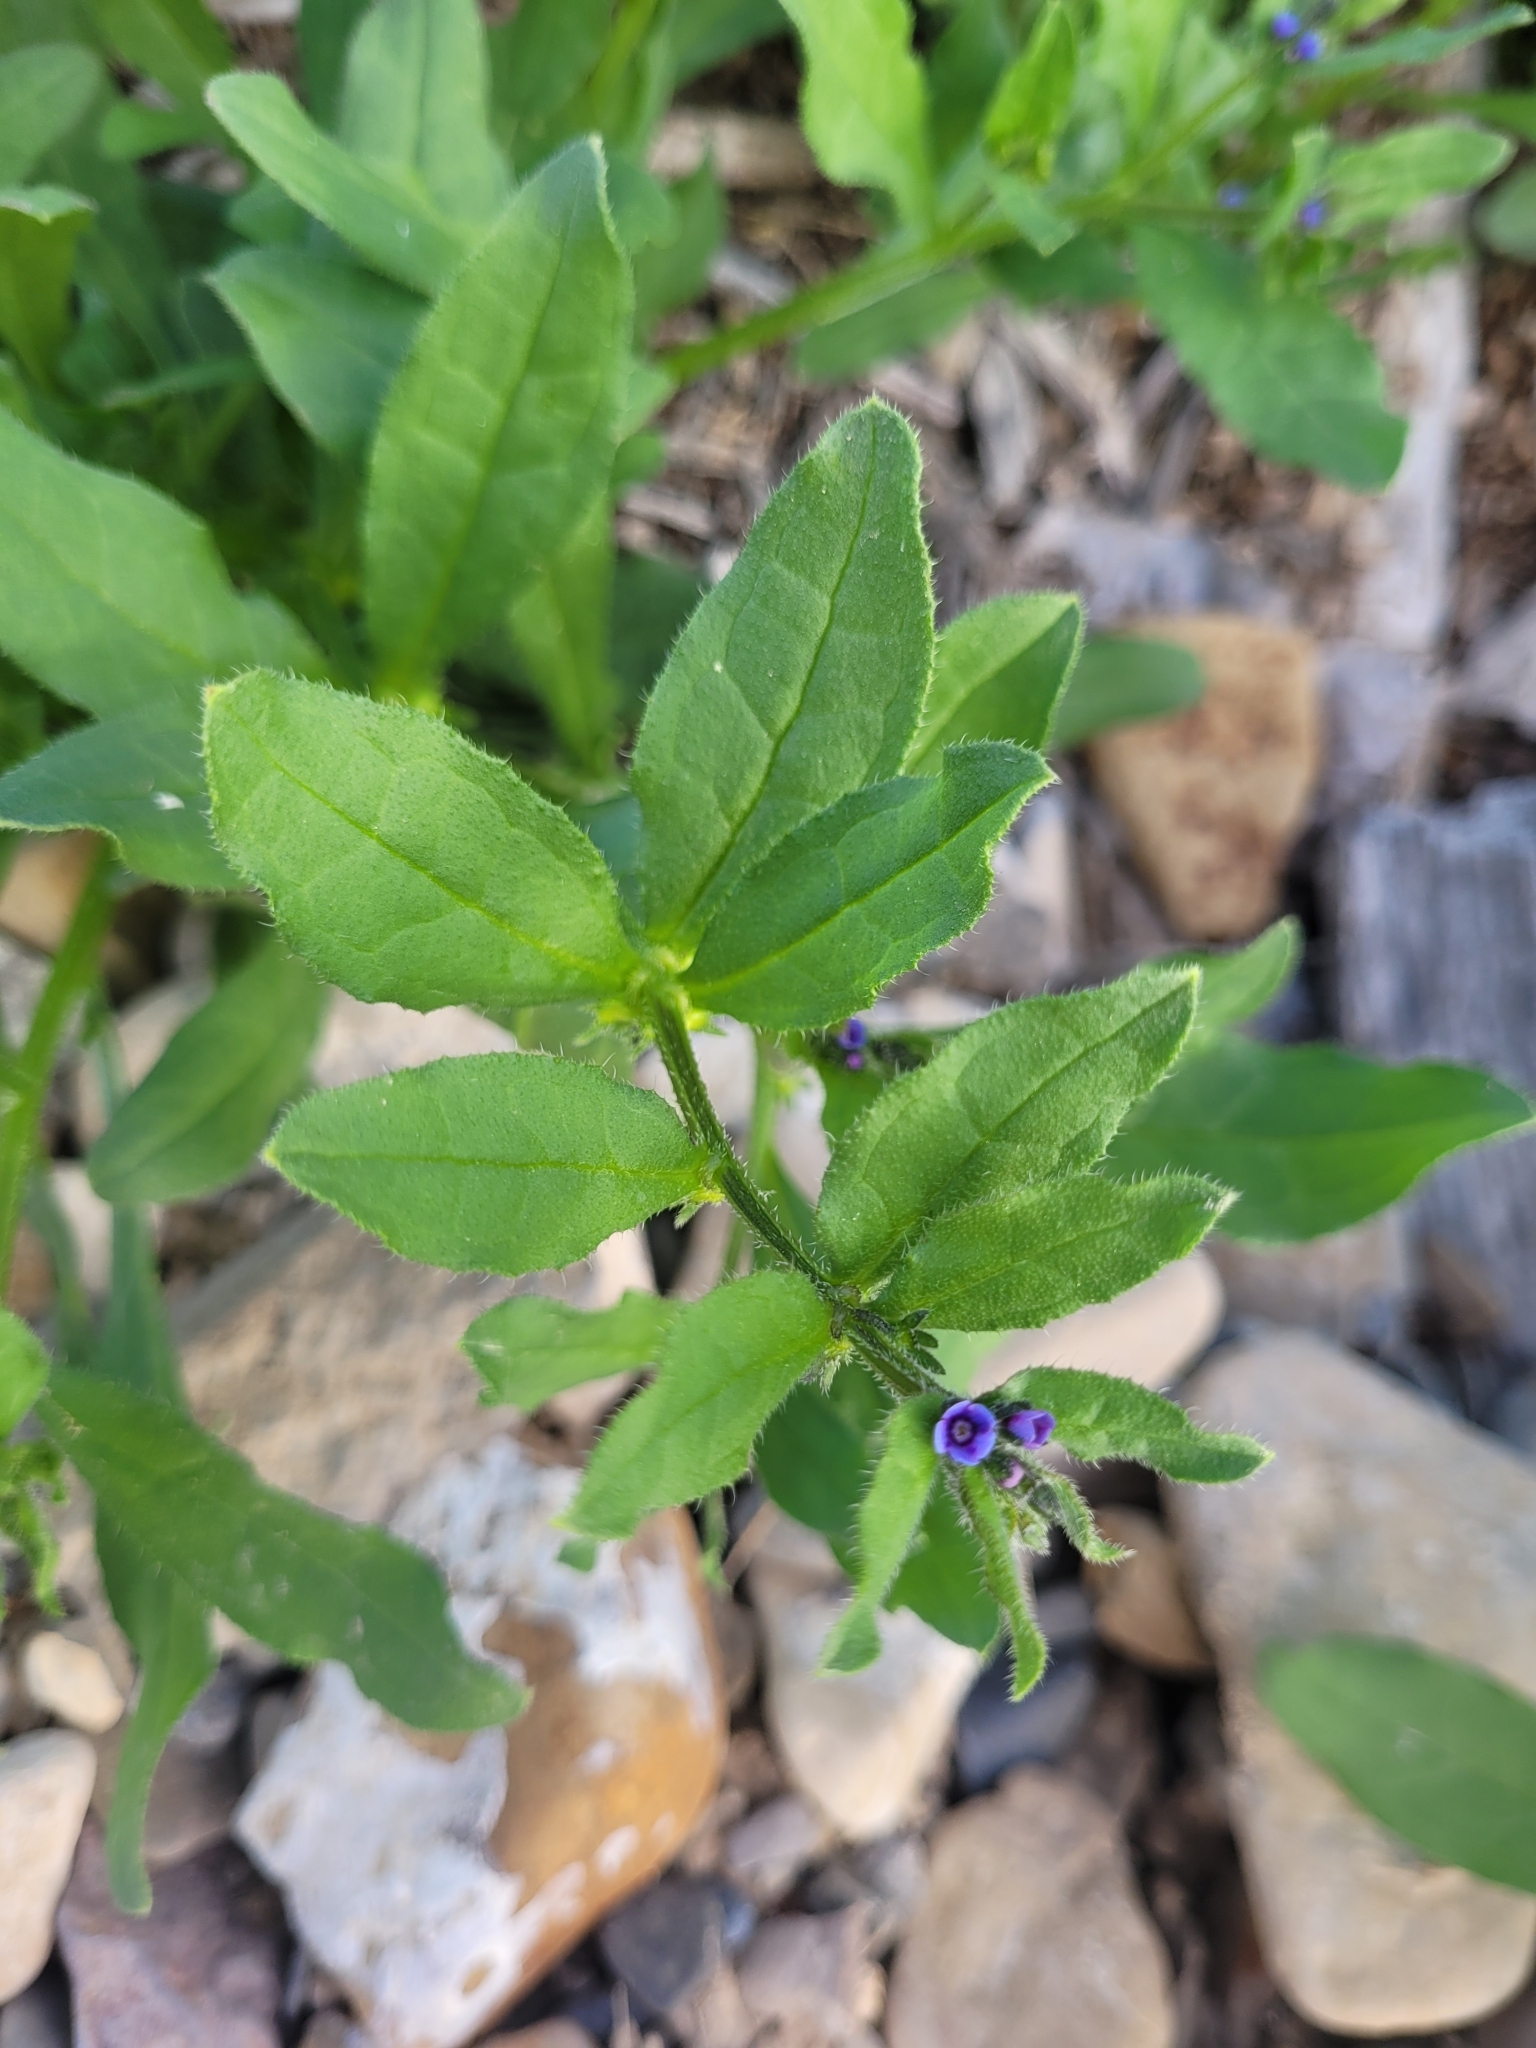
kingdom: Plantae
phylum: Tracheophyta
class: Magnoliopsida
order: Boraginales
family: Boraginaceae
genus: Asperugo
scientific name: Asperugo procumbens
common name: Madwort
